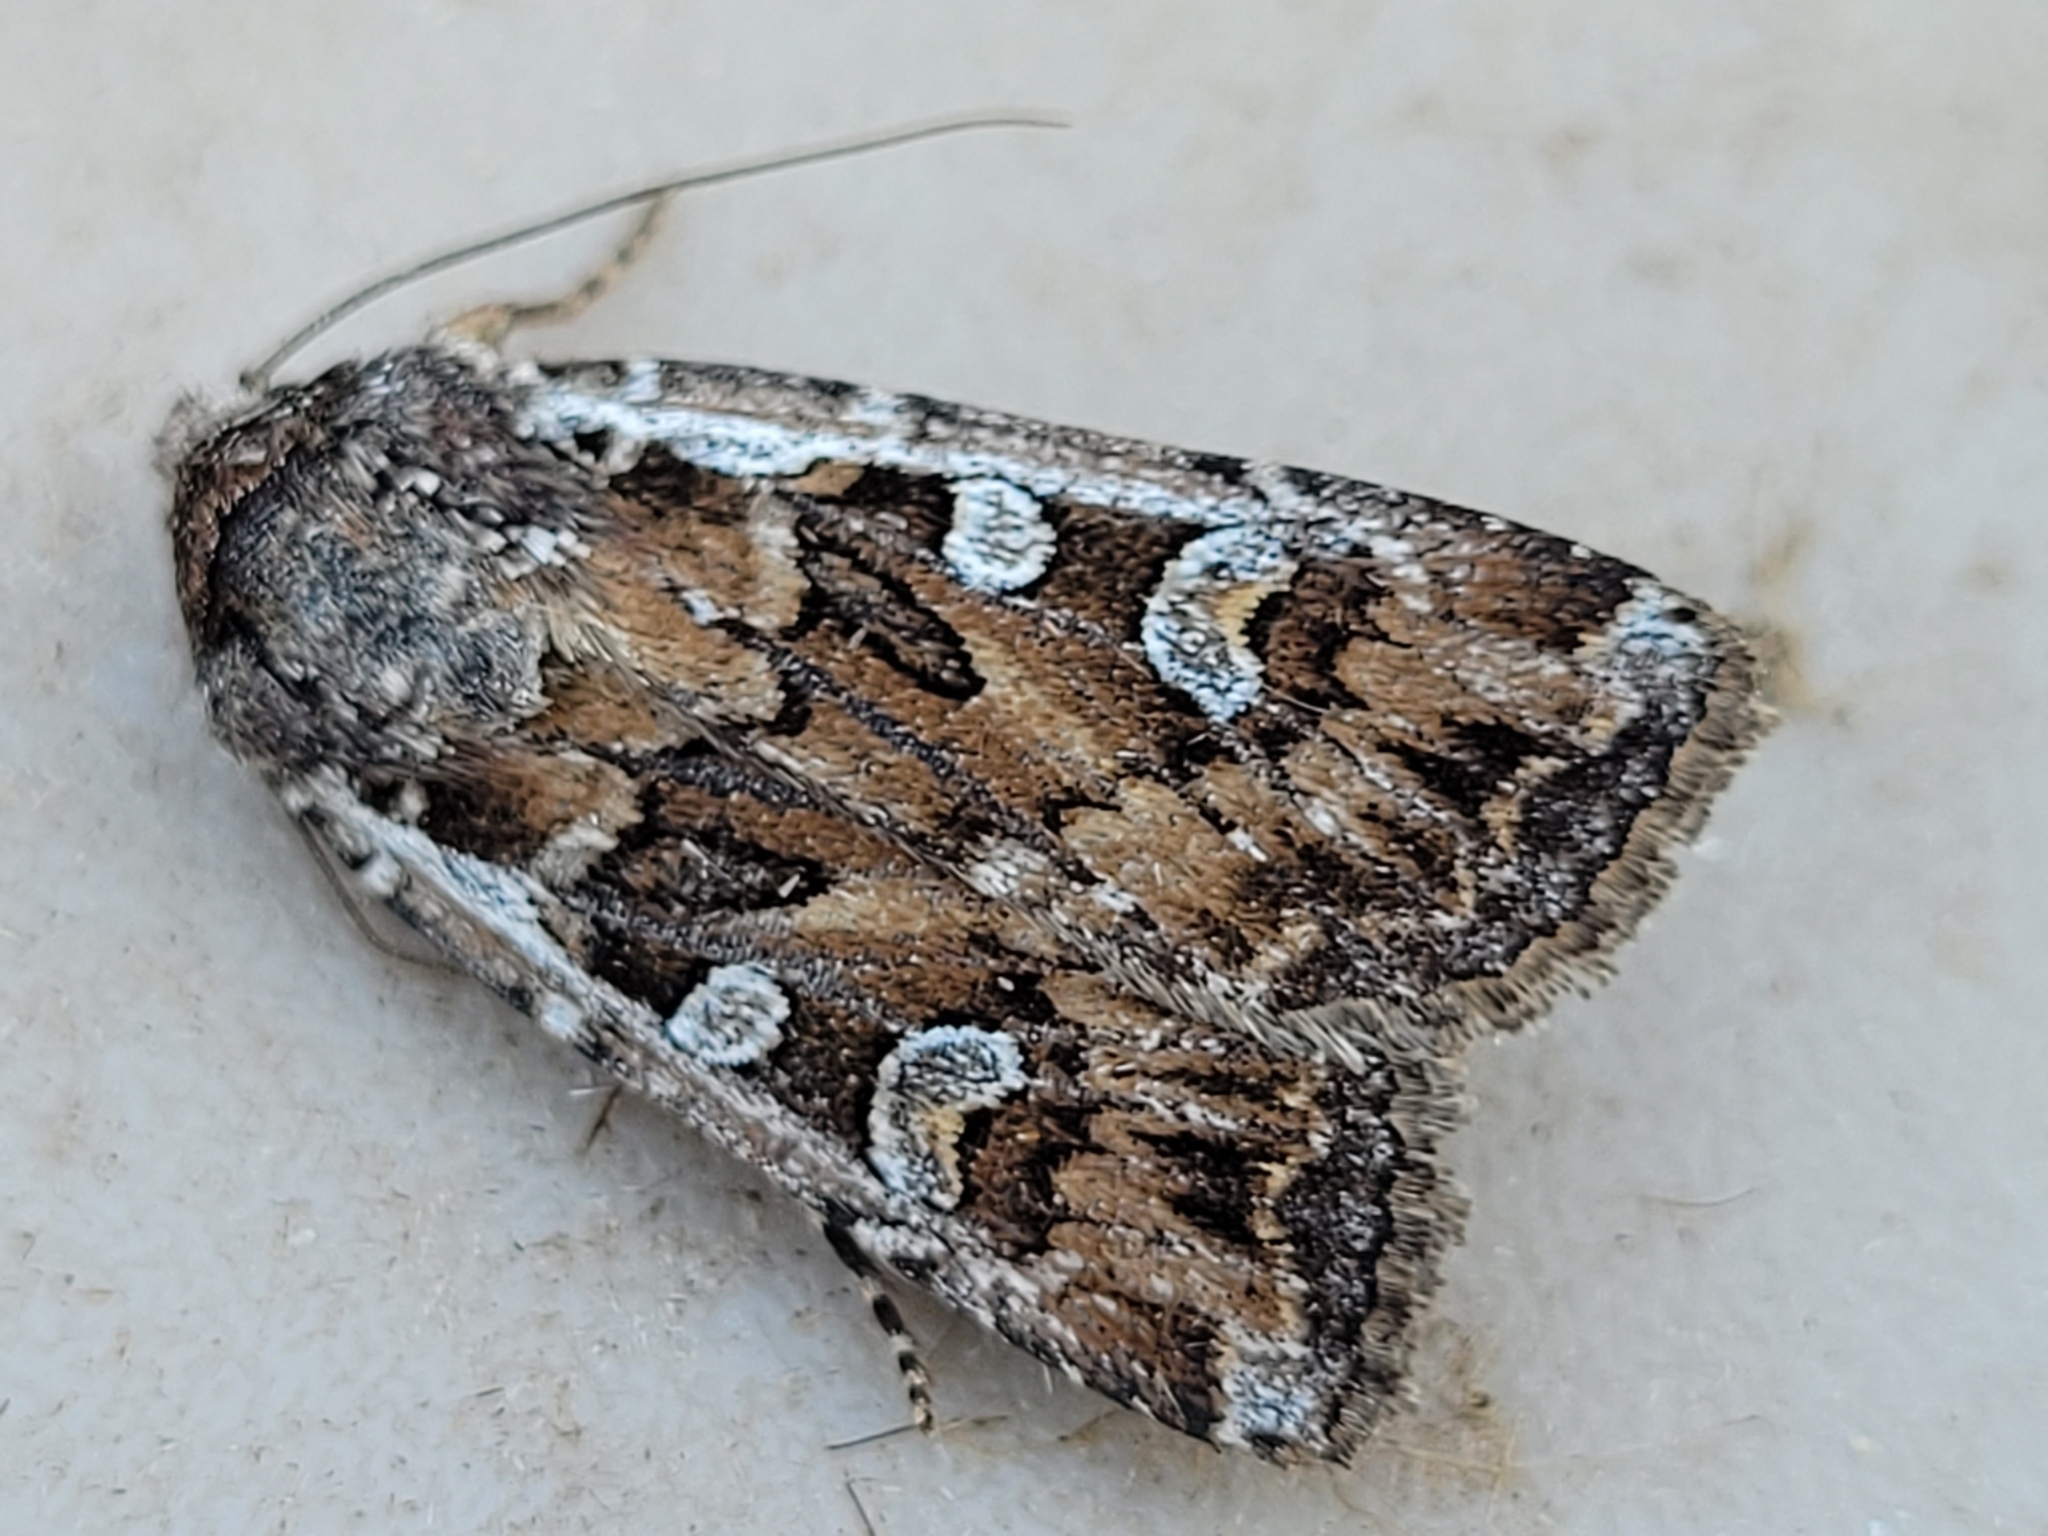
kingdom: Animalia
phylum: Arthropoda
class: Insecta
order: Lepidoptera
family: Noctuidae
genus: Euxoa
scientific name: Euxoa manitobana
